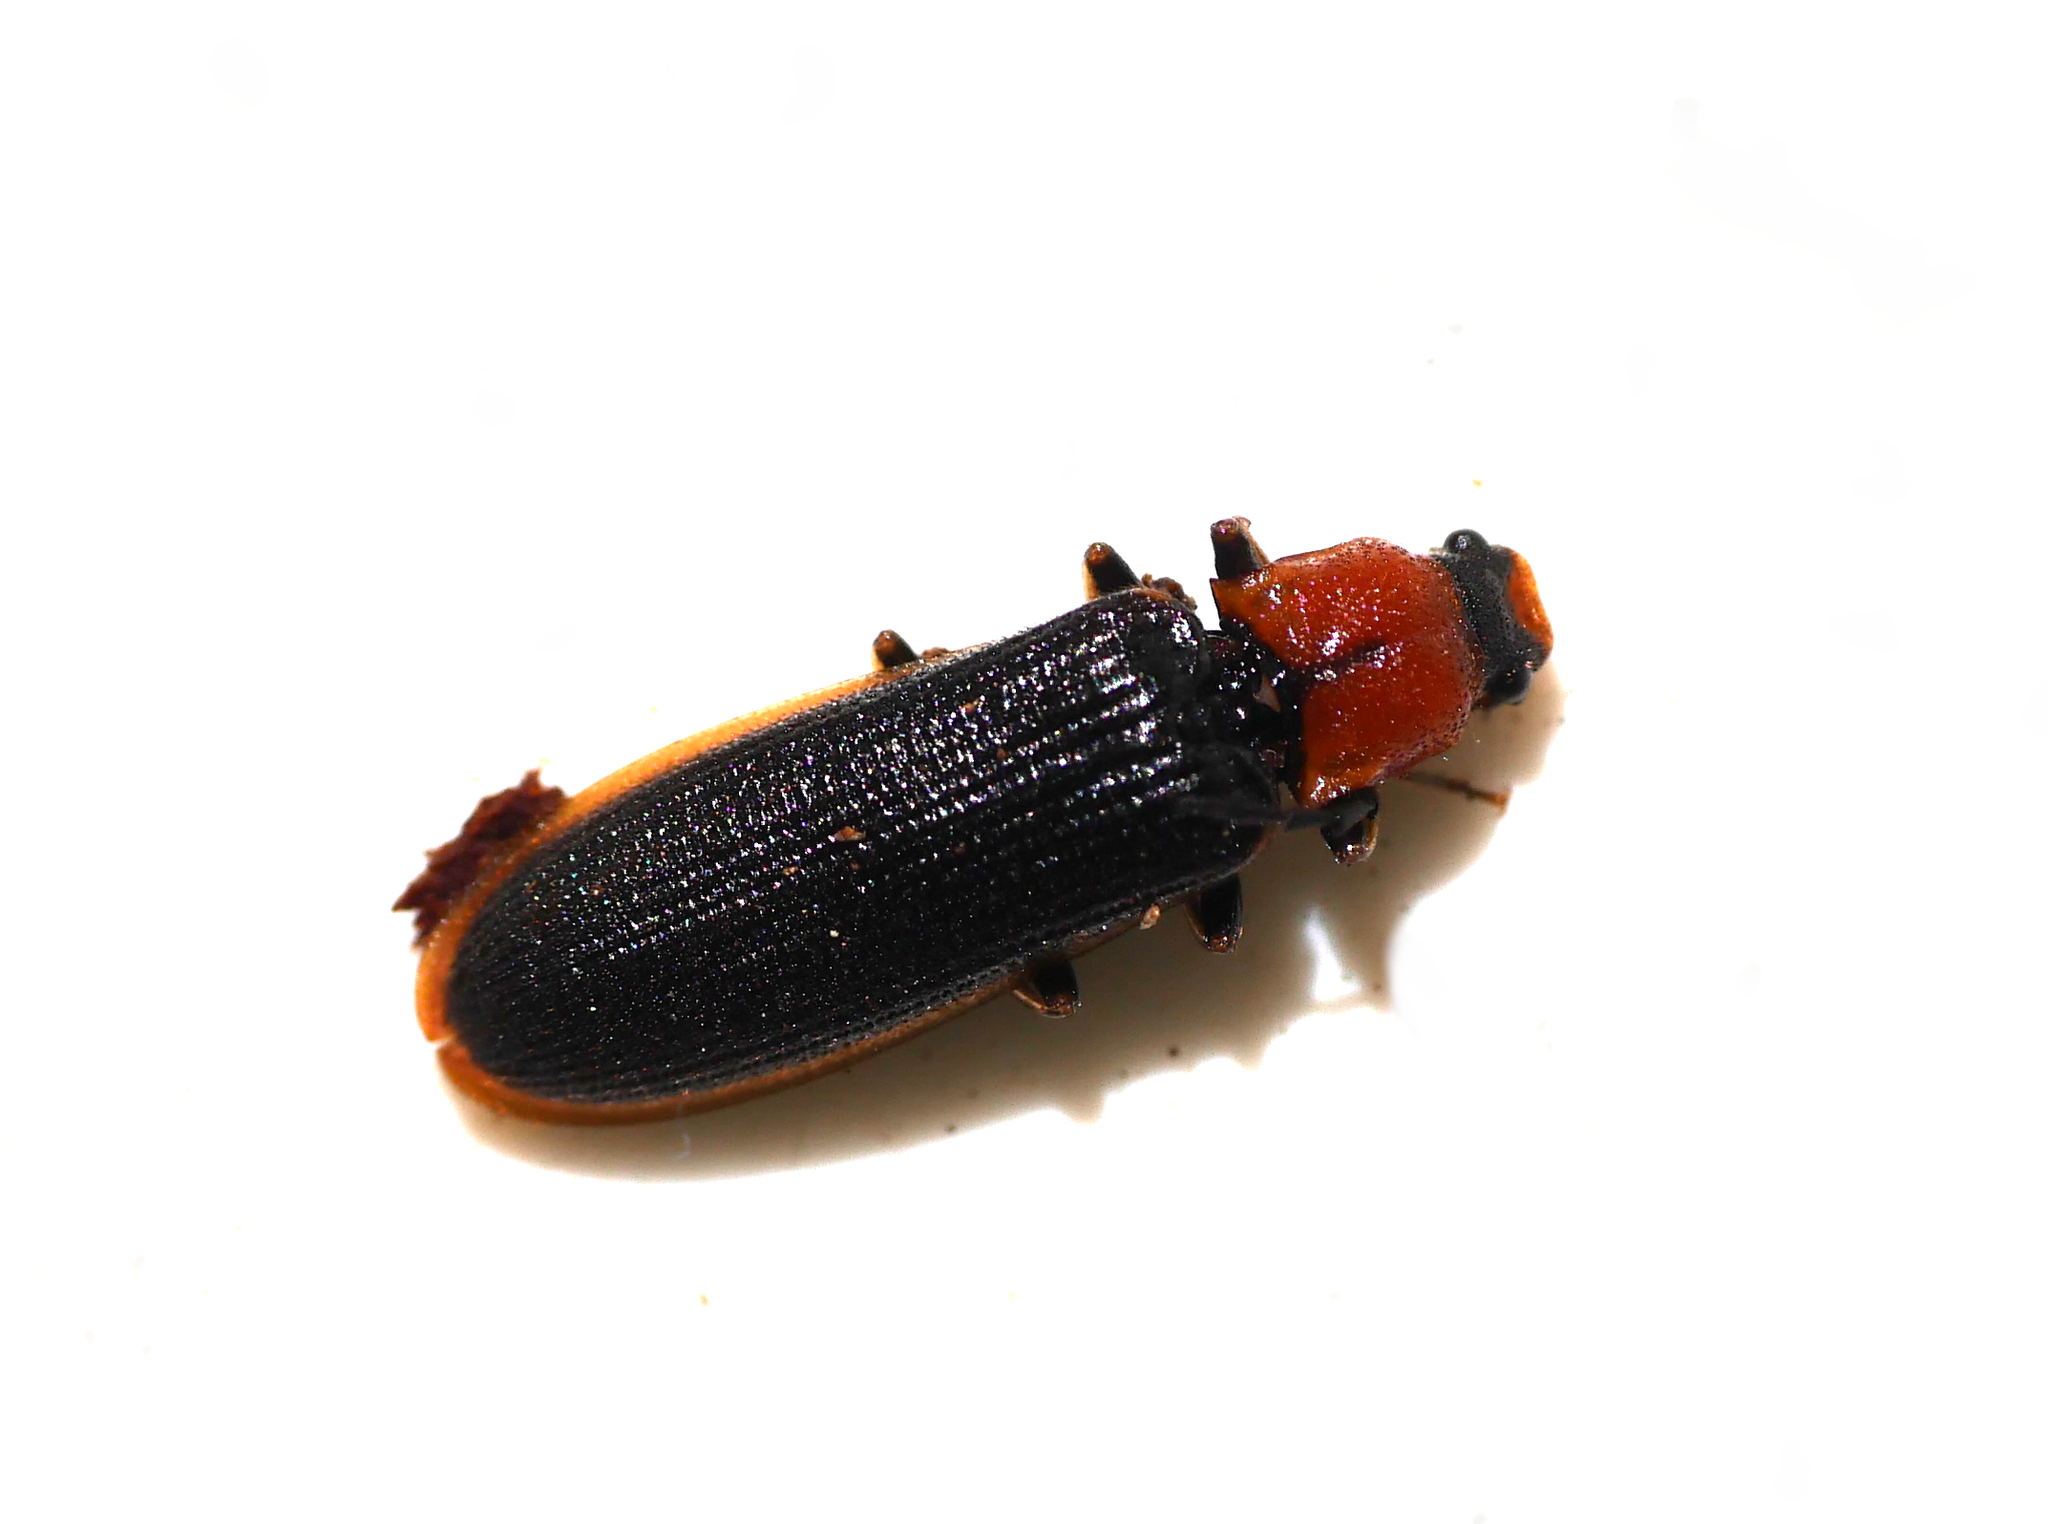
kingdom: Animalia
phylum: Arthropoda
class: Insecta
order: Coleoptera
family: Elateridae
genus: Denticollis
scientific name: Denticollis linearis
